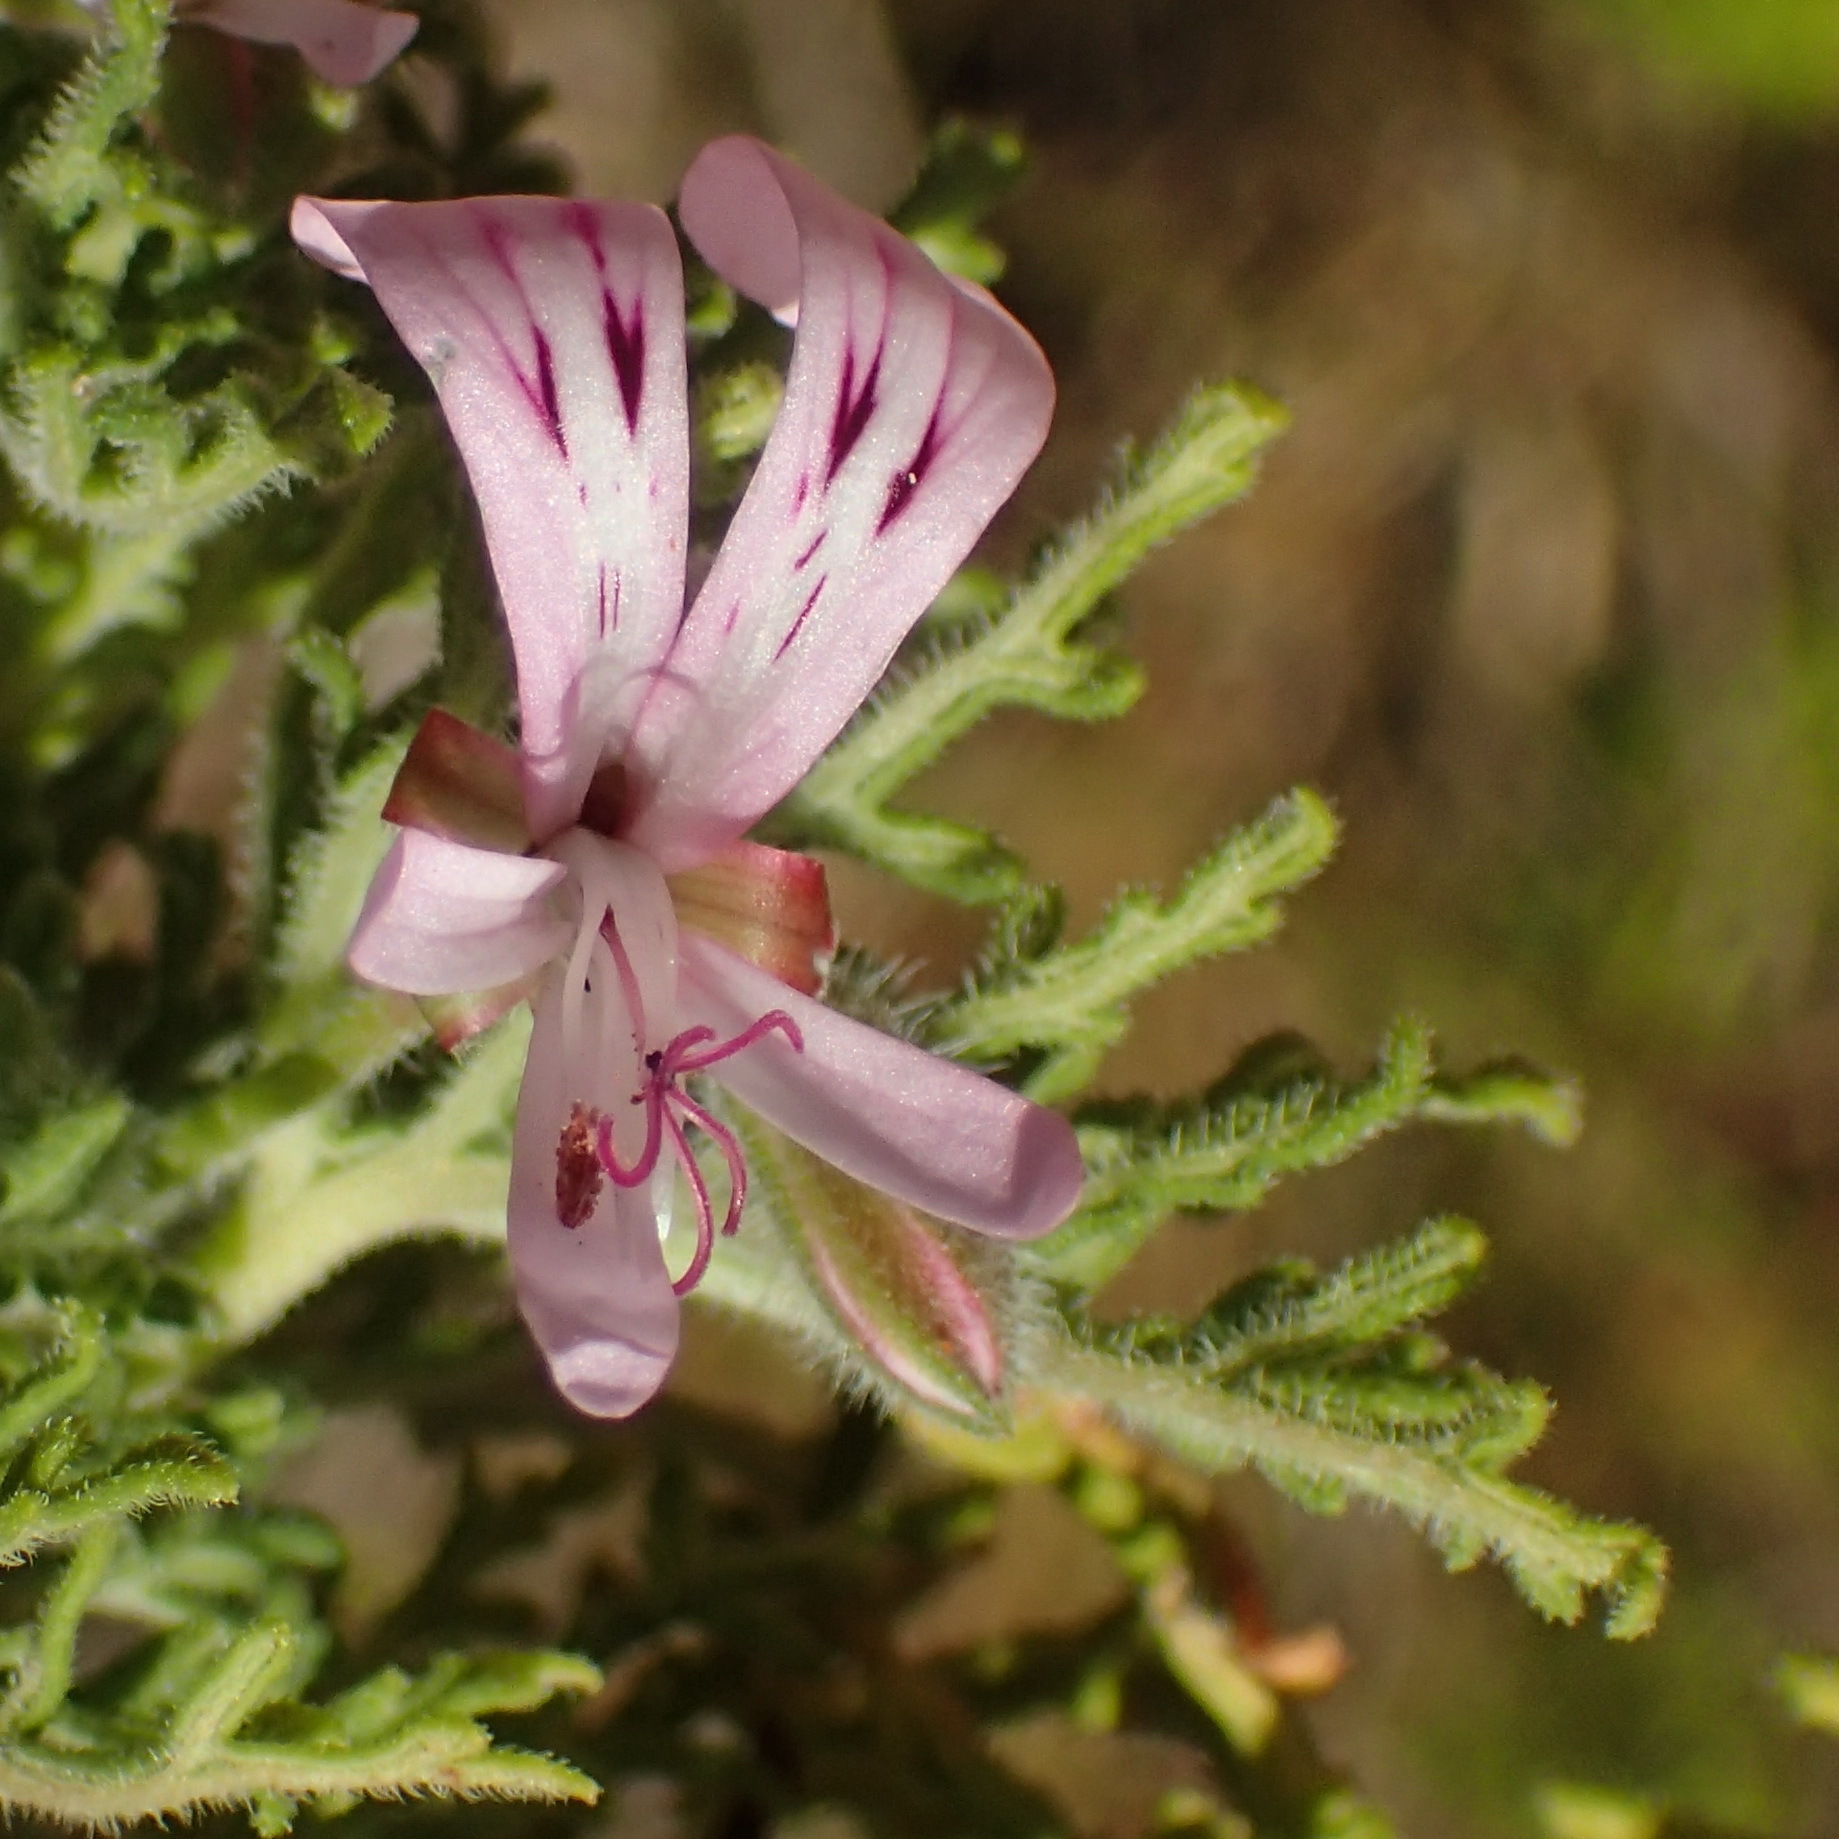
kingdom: Plantae
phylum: Tracheophyta
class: Magnoliopsida
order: Geraniales
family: Geraniaceae
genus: Pelargonium
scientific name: Pelargonium radens
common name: Rasp-leaf pelargonium
